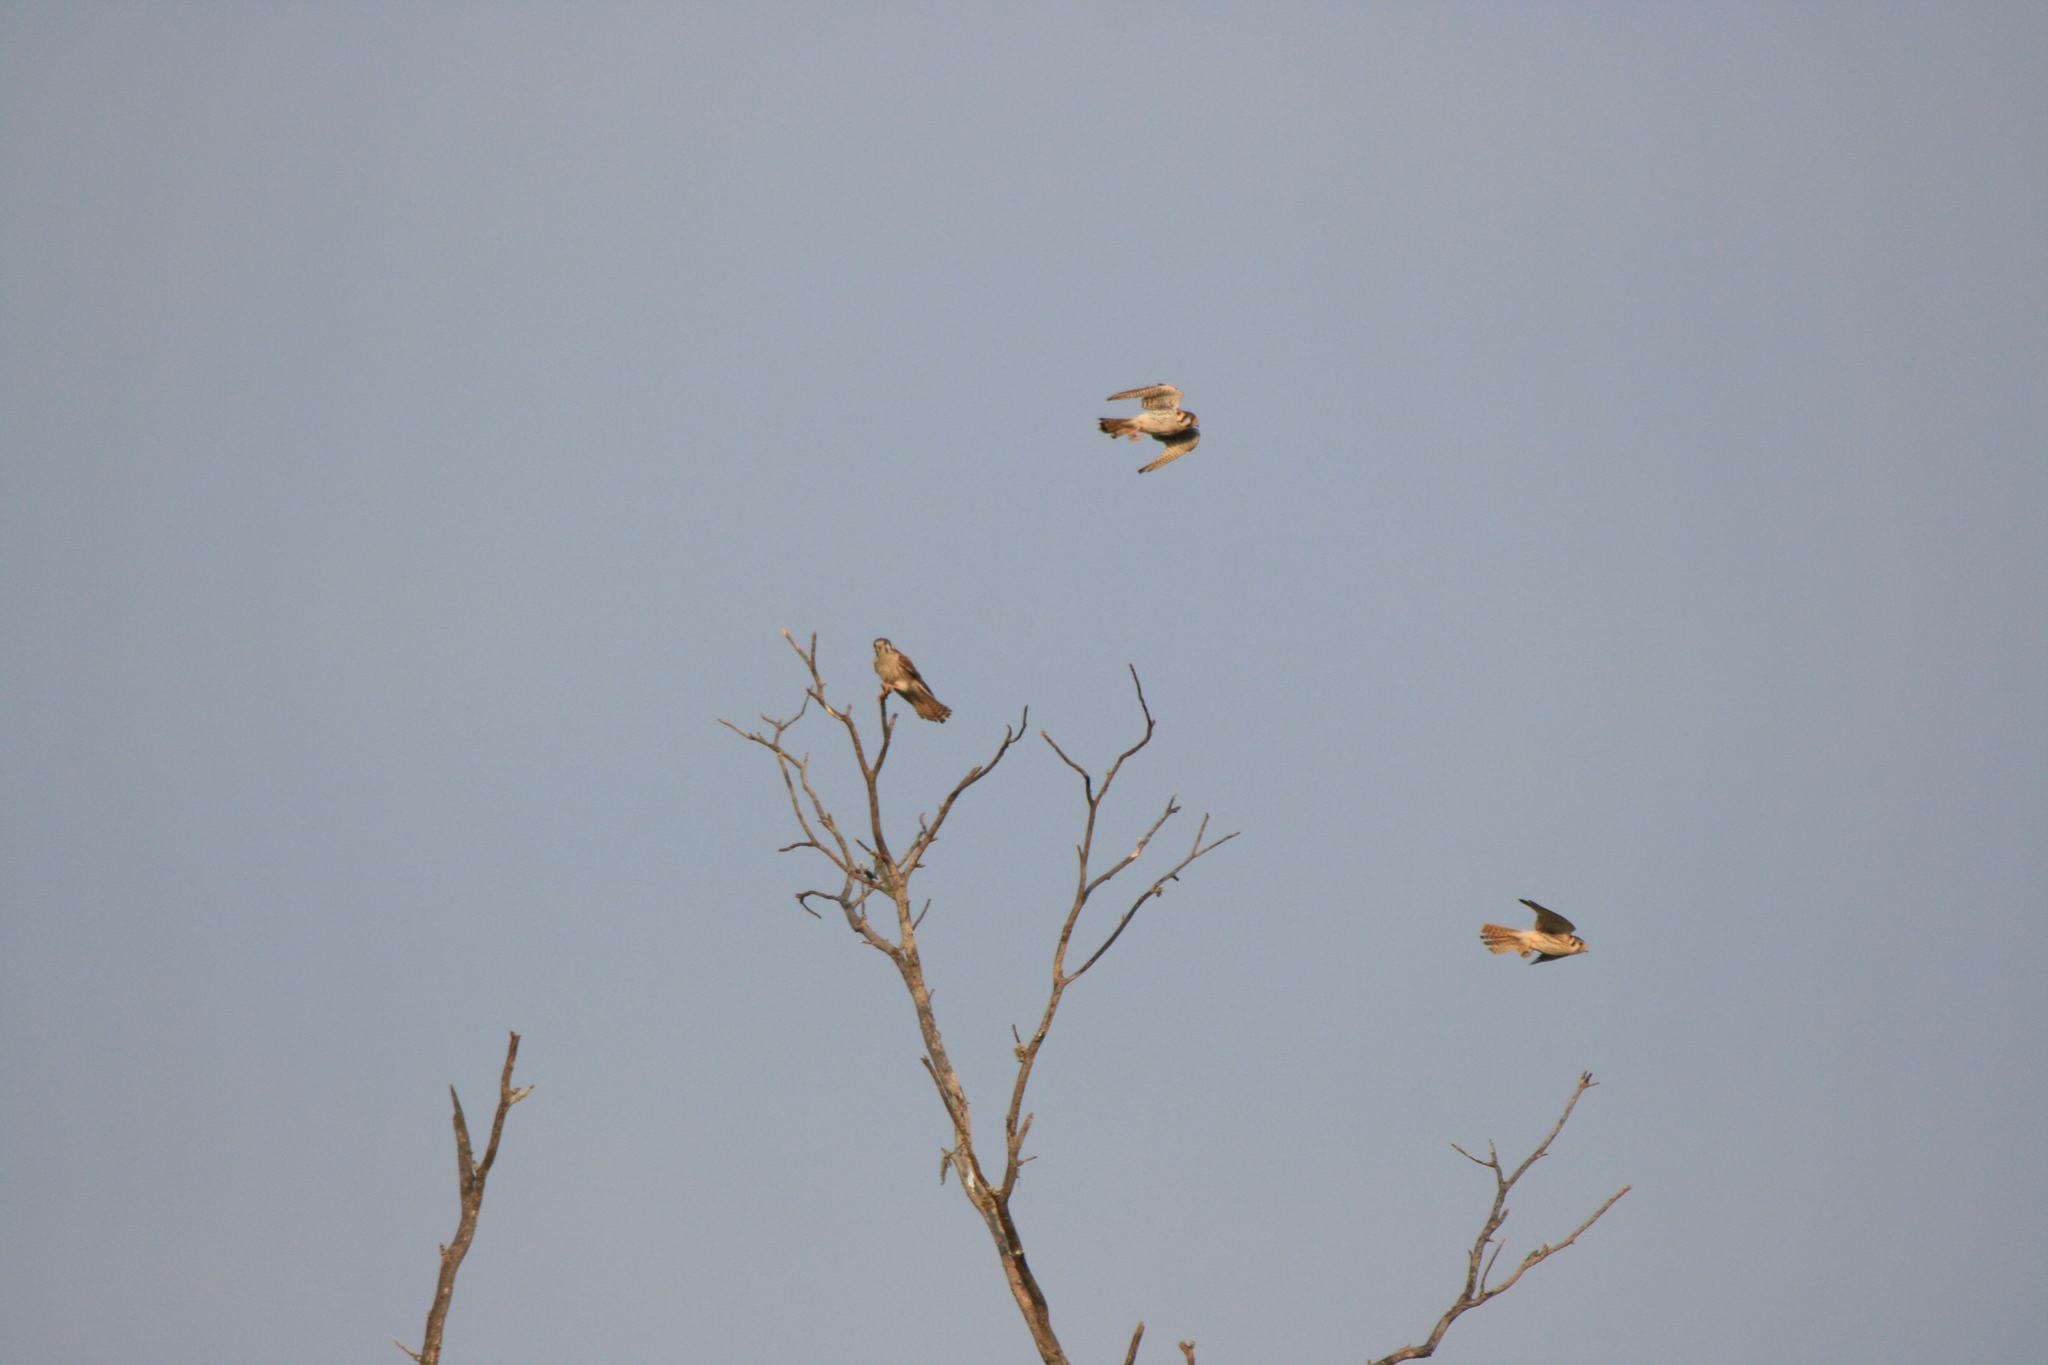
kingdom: Animalia
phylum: Chordata
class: Aves
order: Falconiformes
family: Falconidae
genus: Falco
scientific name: Falco sparverius
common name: American kestrel
